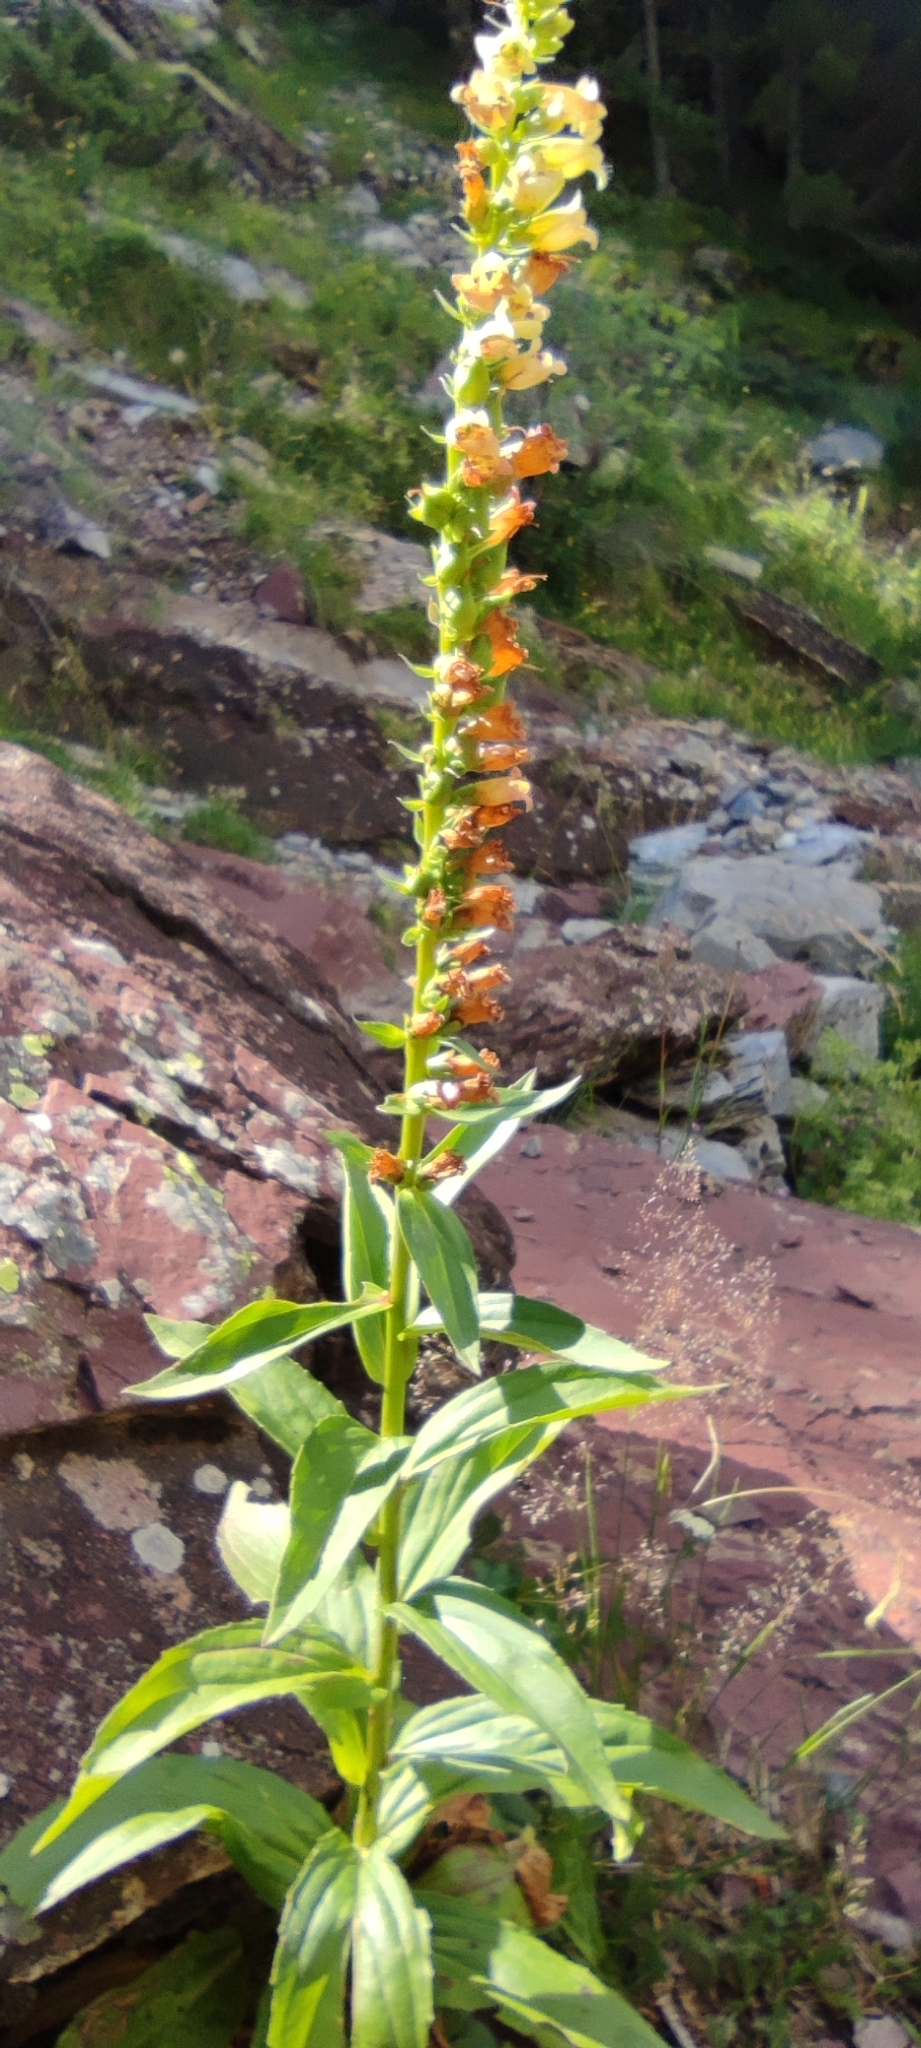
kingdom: Plantae
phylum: Tracheophyta
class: Magnoliopsida
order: Lamiales
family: Plantaginaceae
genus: Digitalis
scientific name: Digitalis lutea
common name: Straw foxglove
